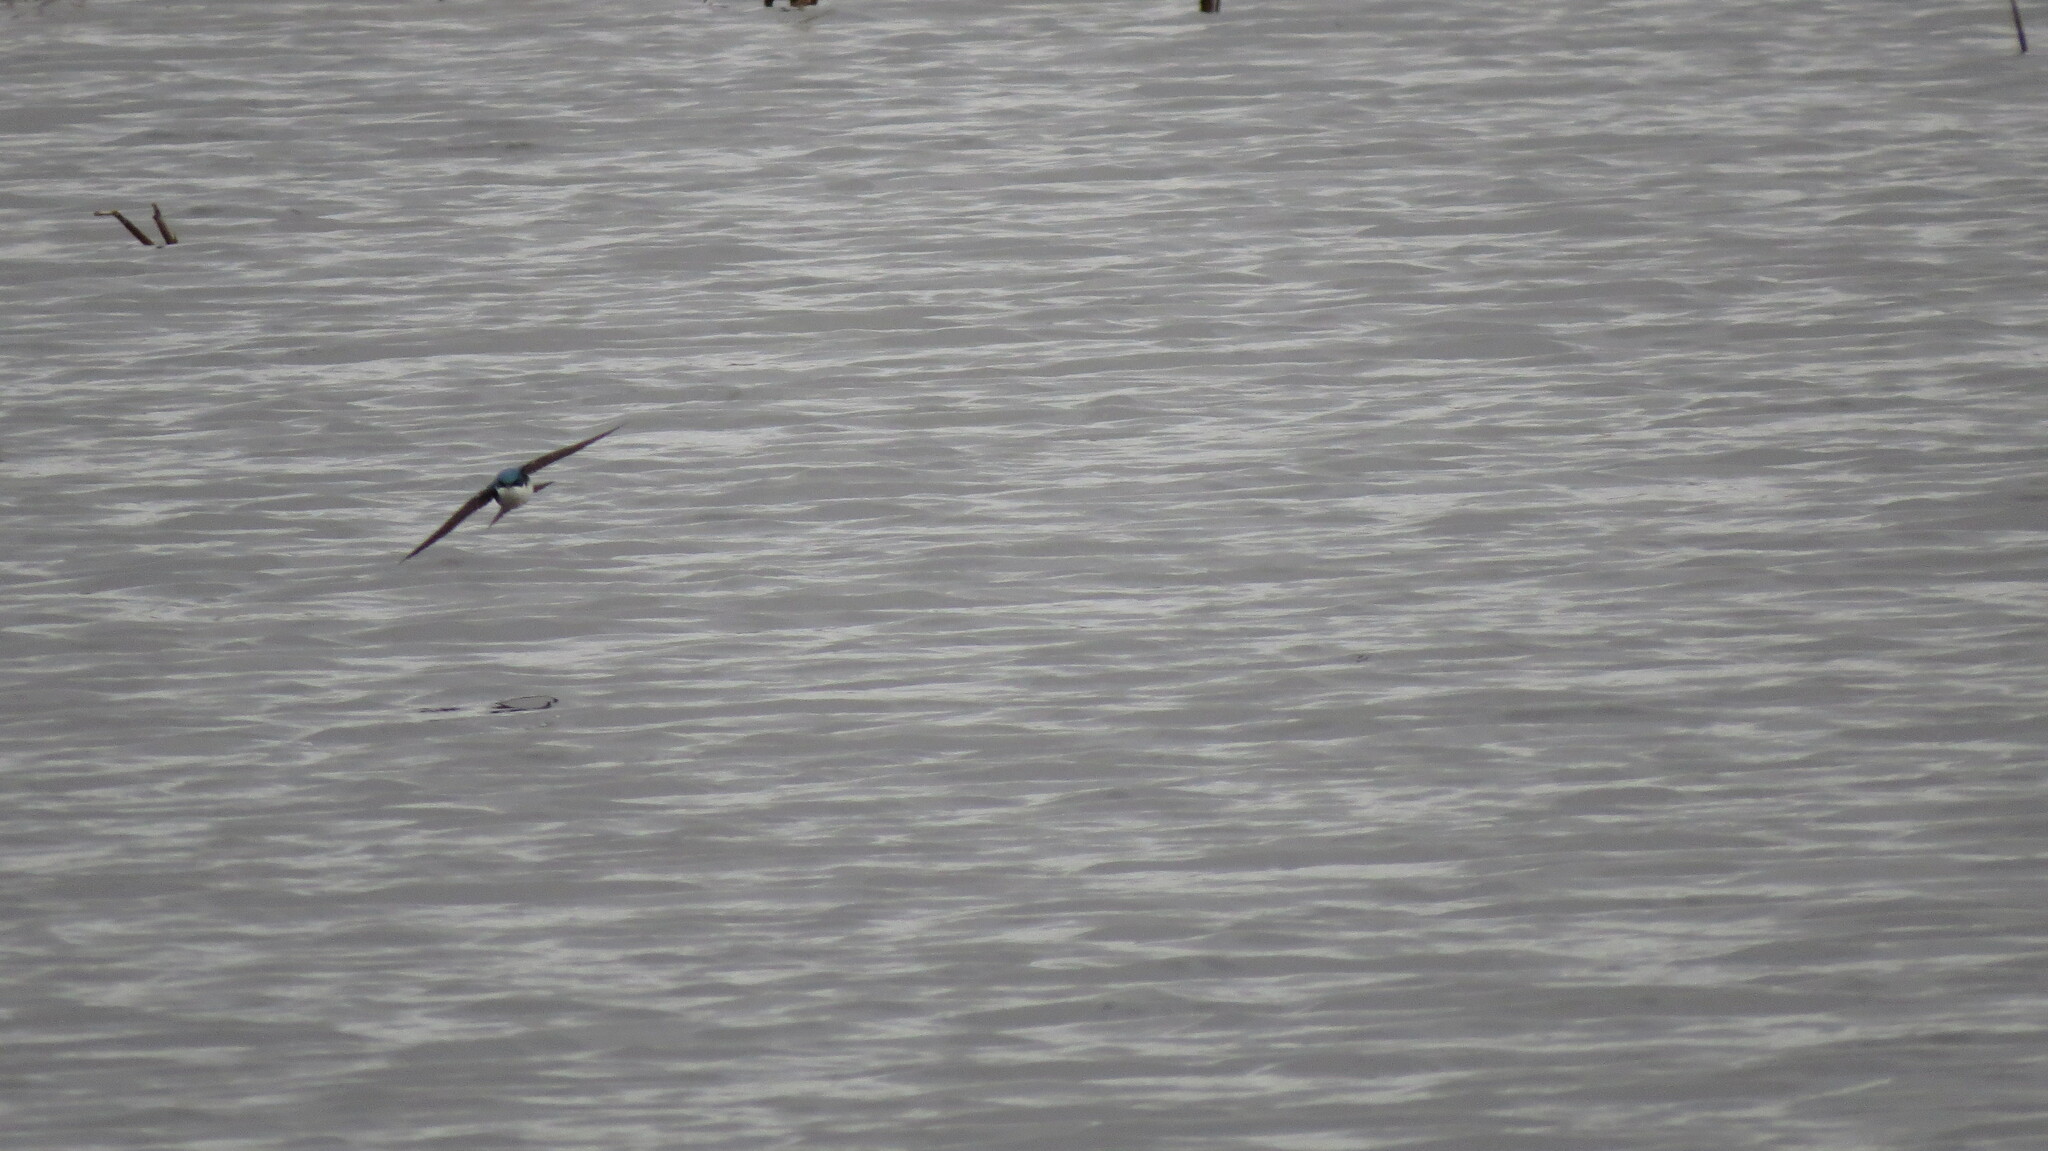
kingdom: Animalia
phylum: Chordata
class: Aves
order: Passeriformes
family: Hirundinidae
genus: Tachycineta
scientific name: Tachycineta bicolor
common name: Tree swallow
